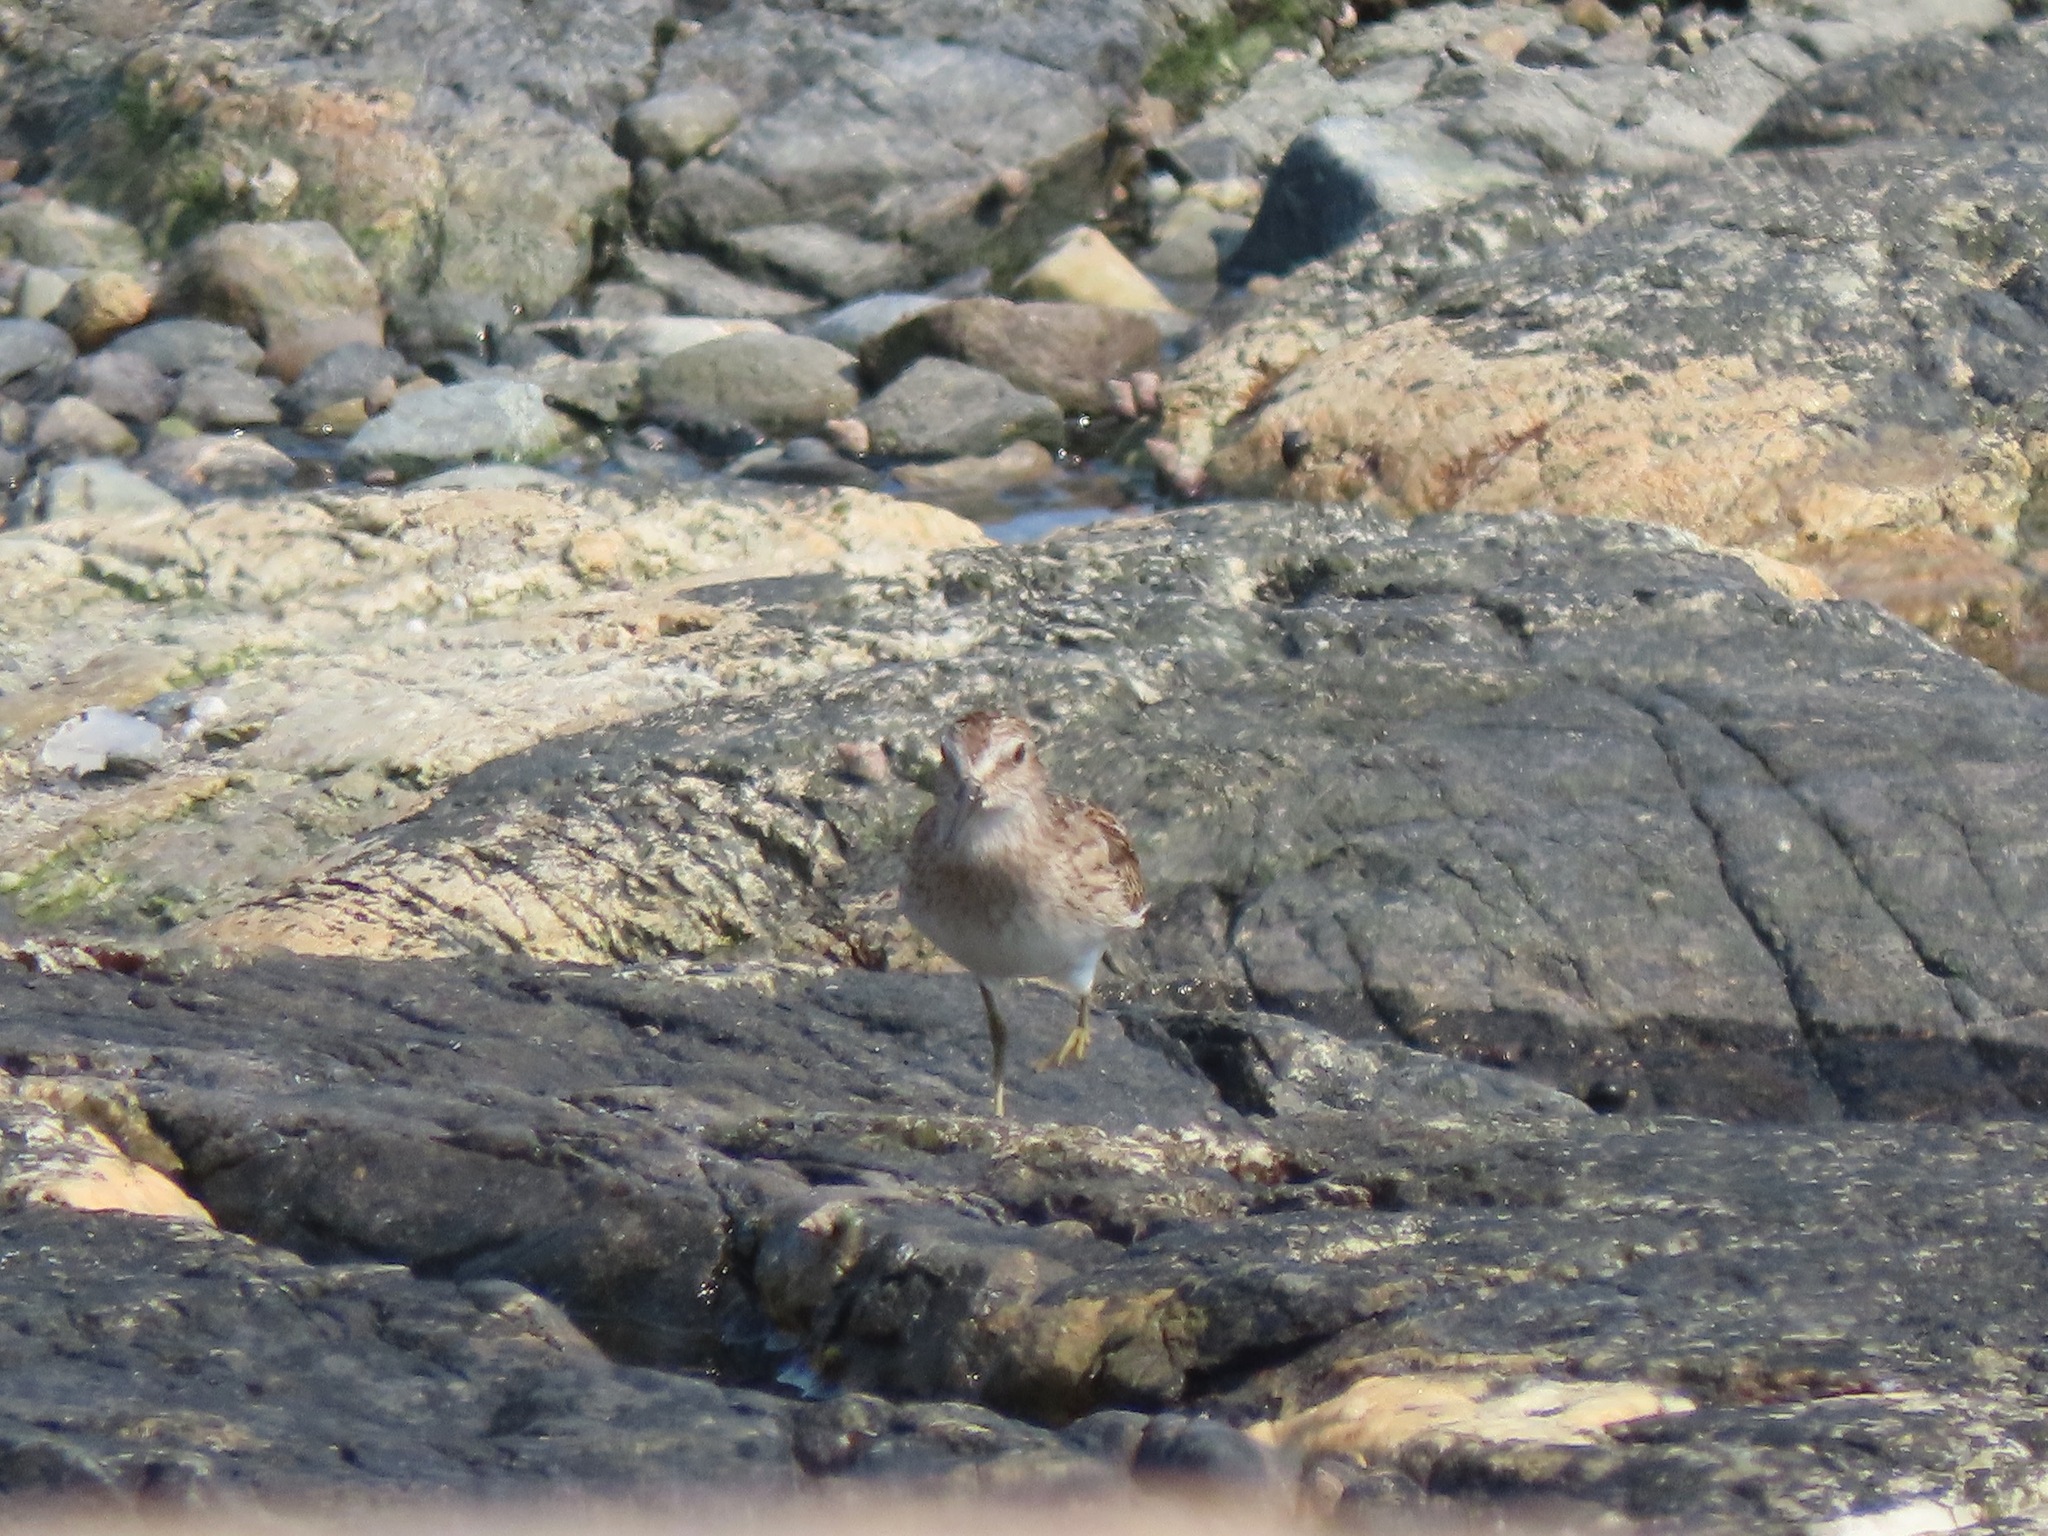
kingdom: Animalia
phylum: Chordata
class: Aves
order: Charadriiformes
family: Scolopacidae
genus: Calidris
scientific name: Calidris minutilla
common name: Least sandpiper
